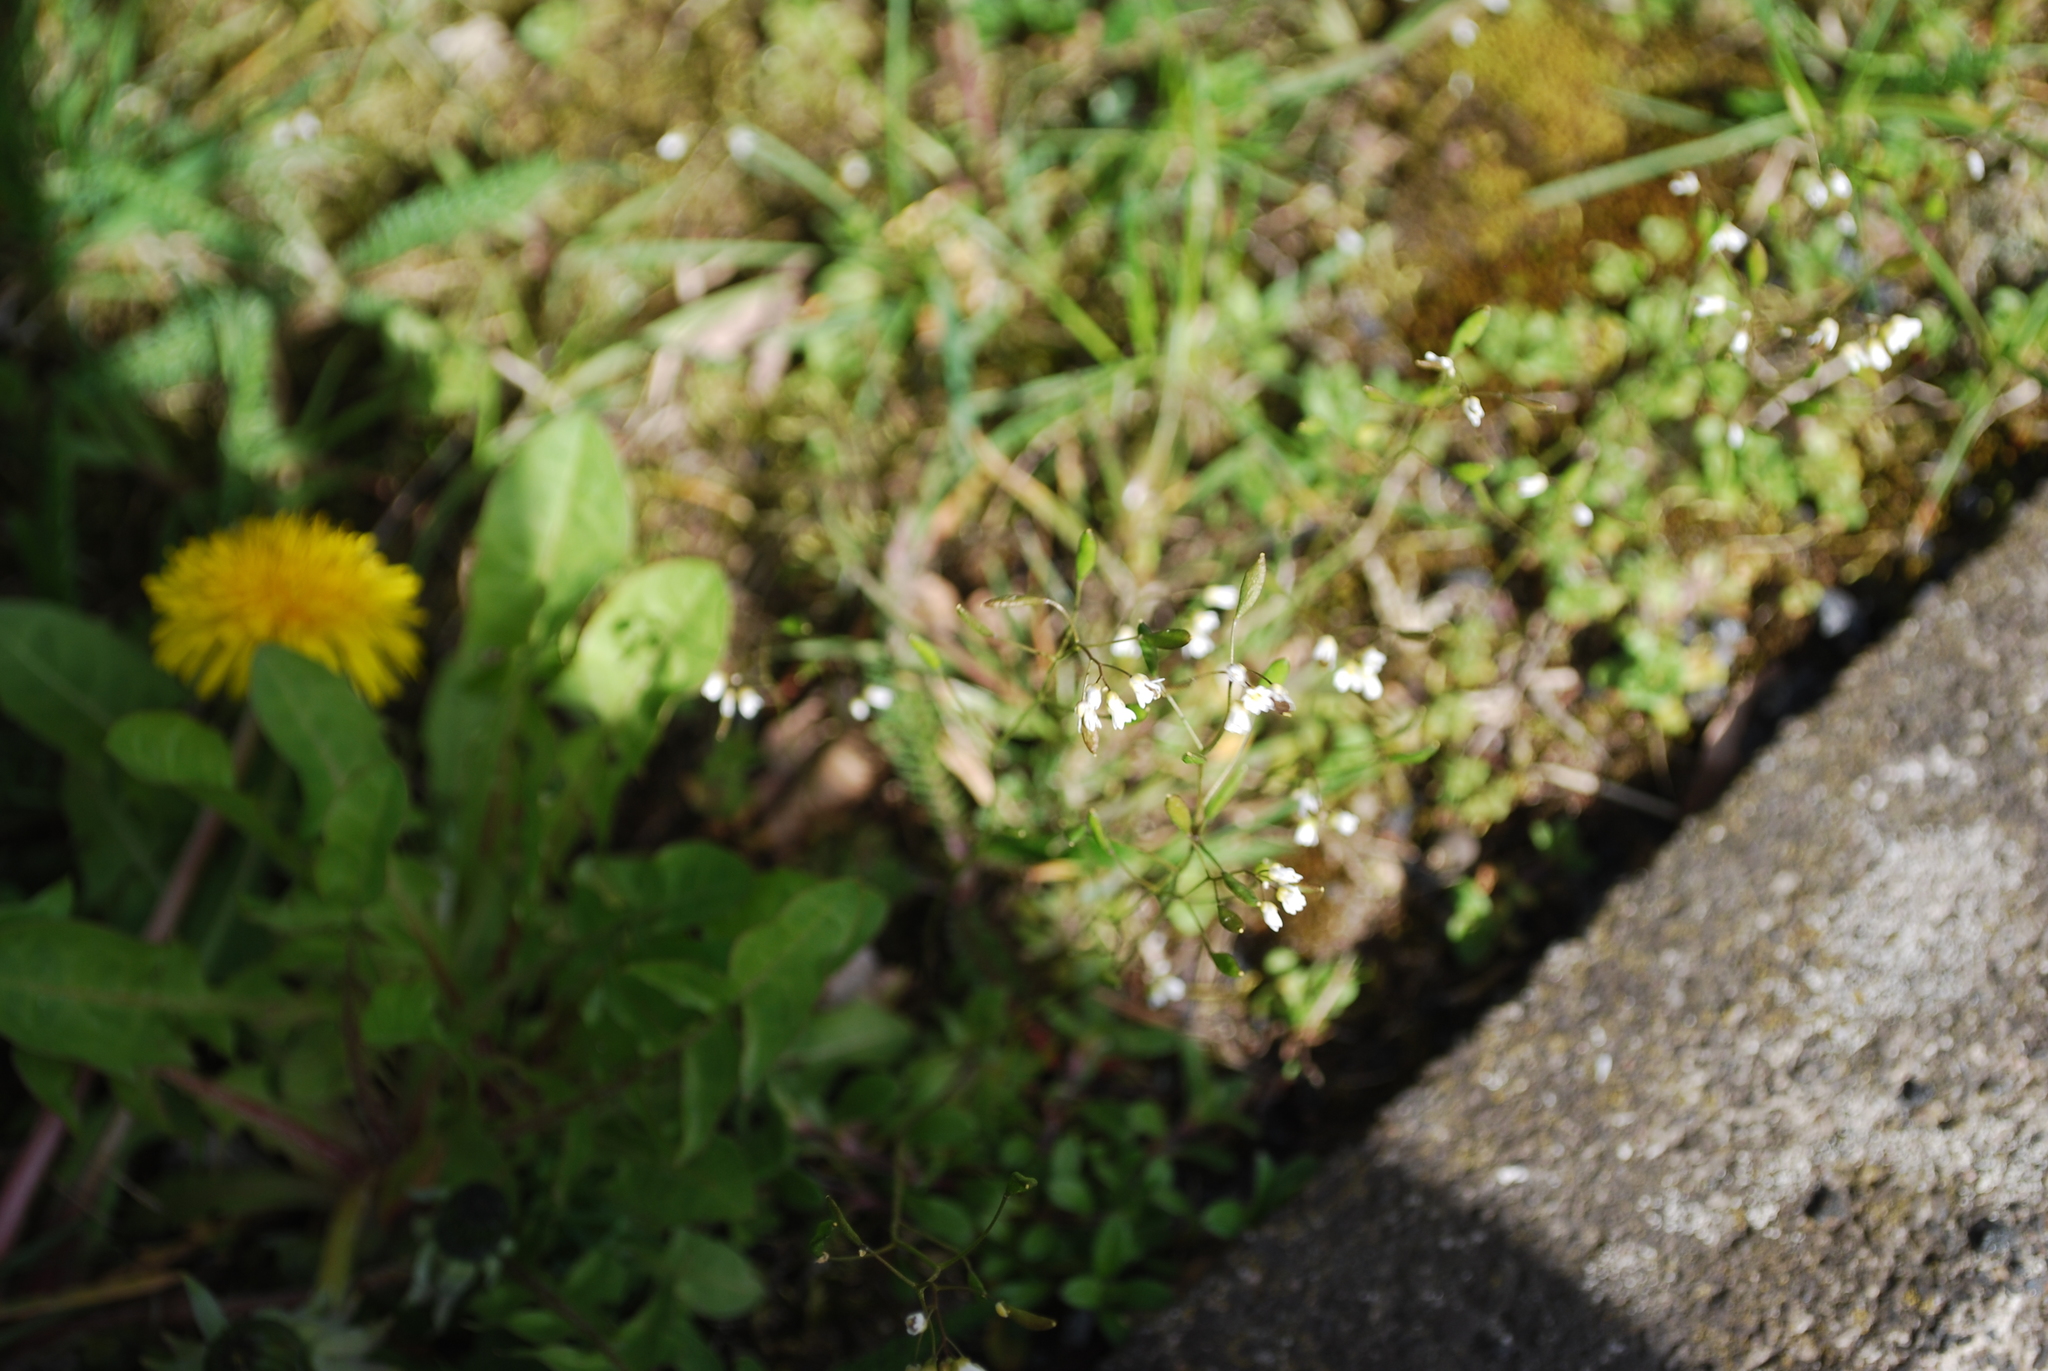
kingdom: Plantae
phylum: Tracheophyta
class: Magnoliopsida
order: Brassicales
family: Brassicaceae
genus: Draba
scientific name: Draba verna
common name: Spring draba
